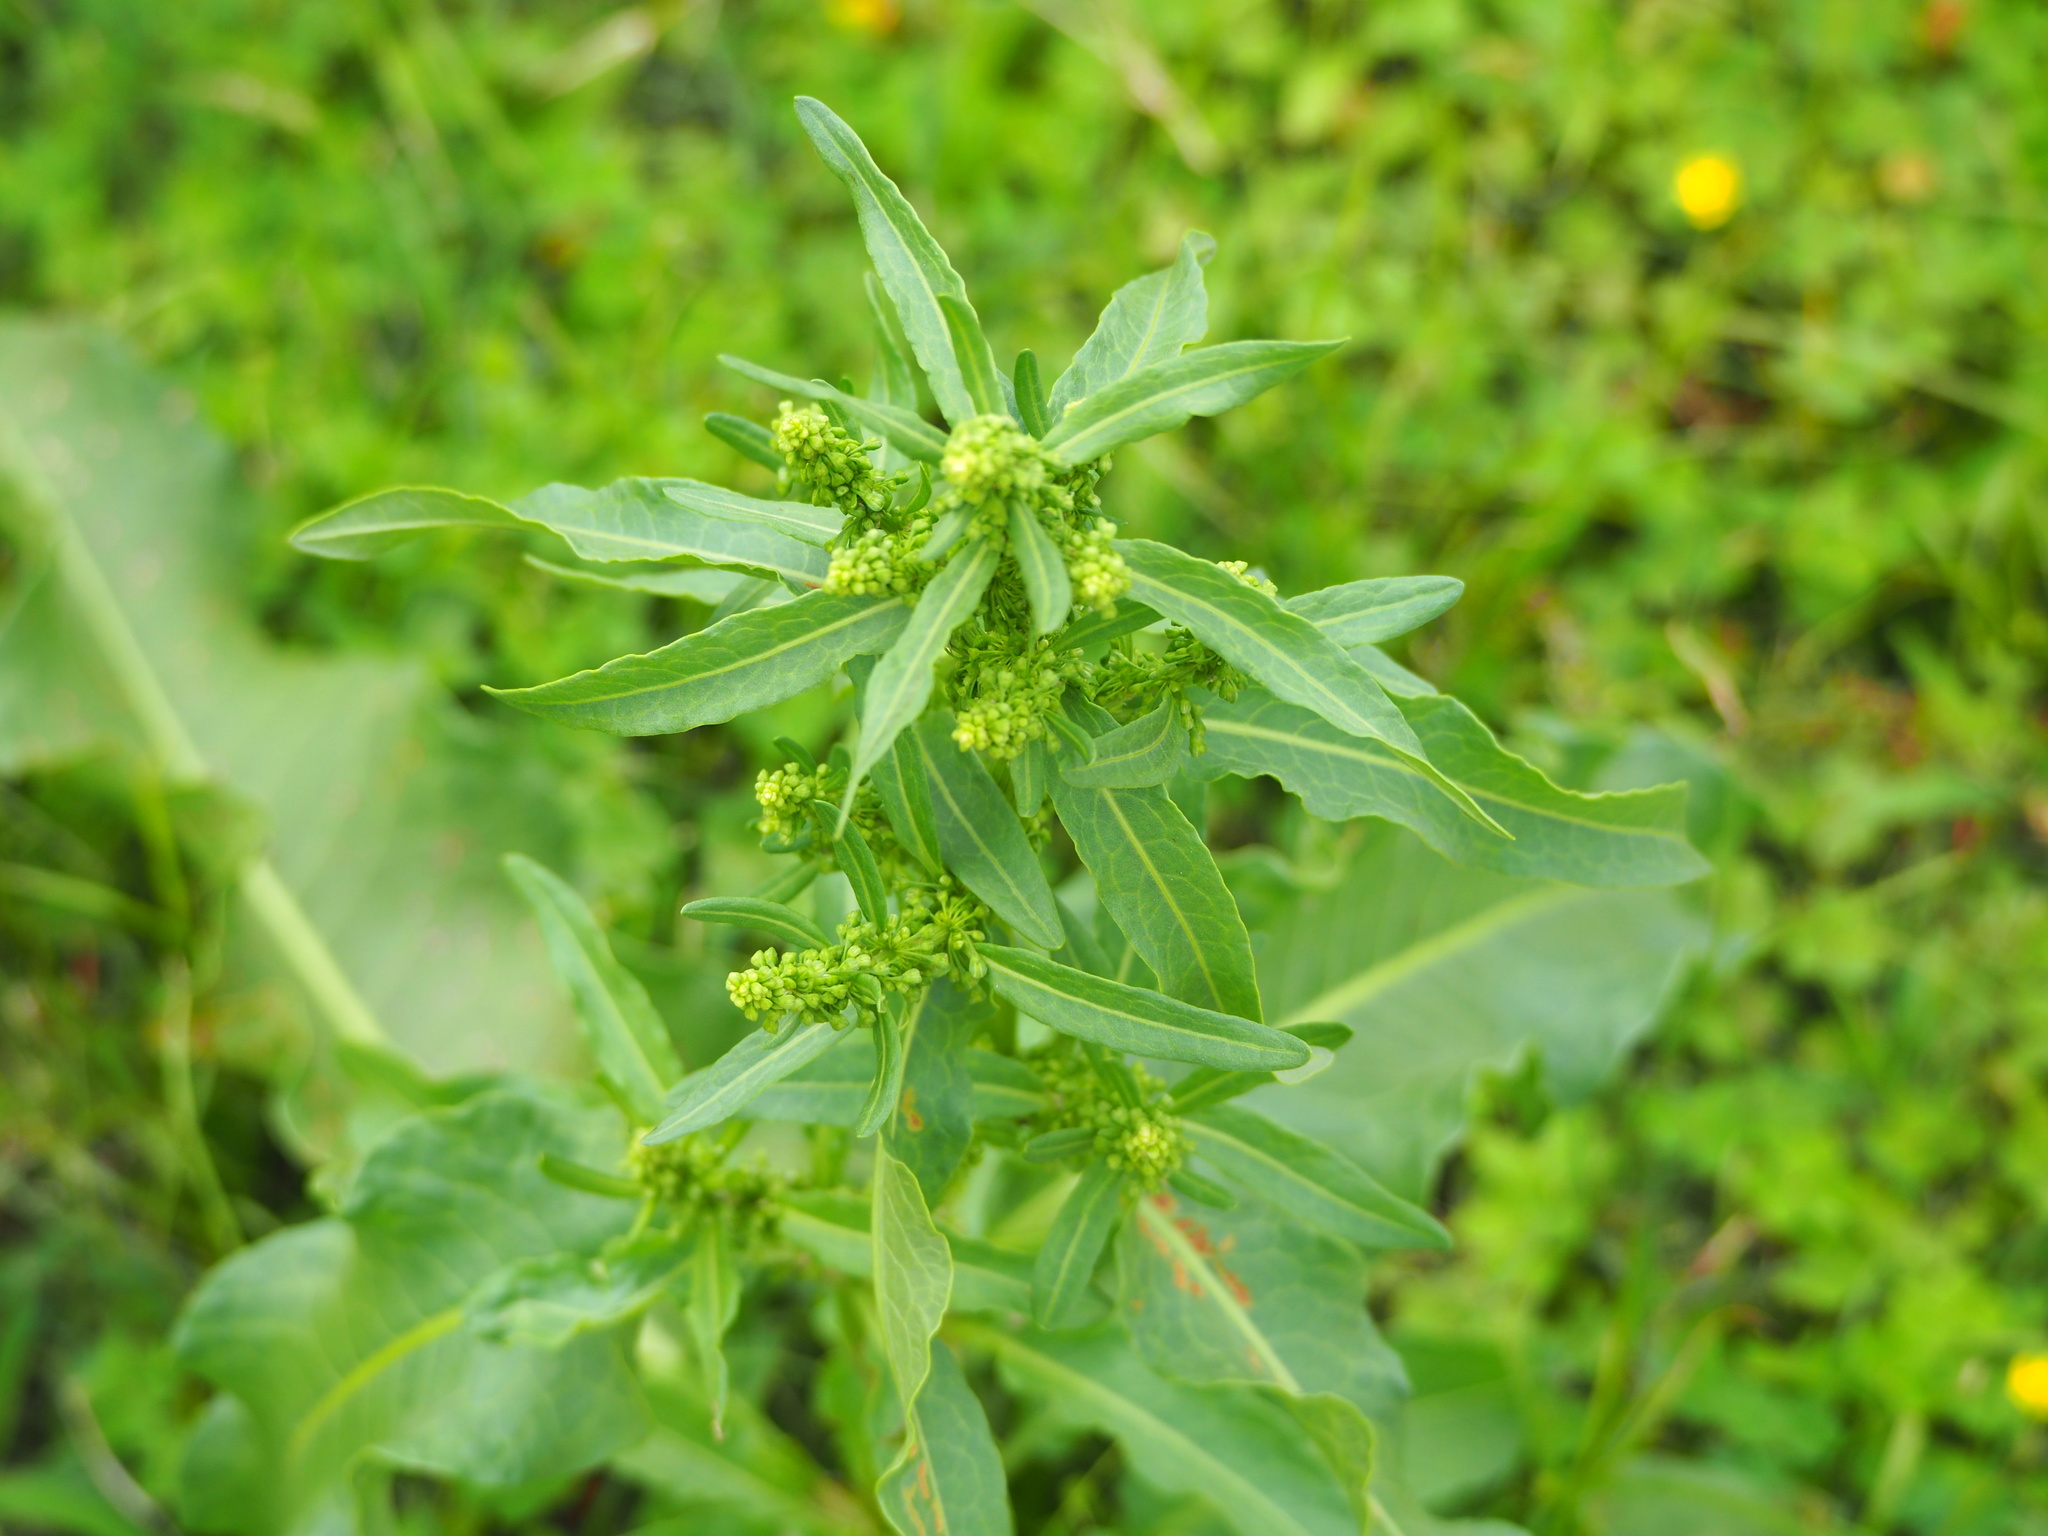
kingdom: Plantae
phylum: Tracheophyta
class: Magnoliopsida
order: Caryophyllales
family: Polygonaceae
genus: Rumex
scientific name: Rumex obtusifolius
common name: Bitter dock
